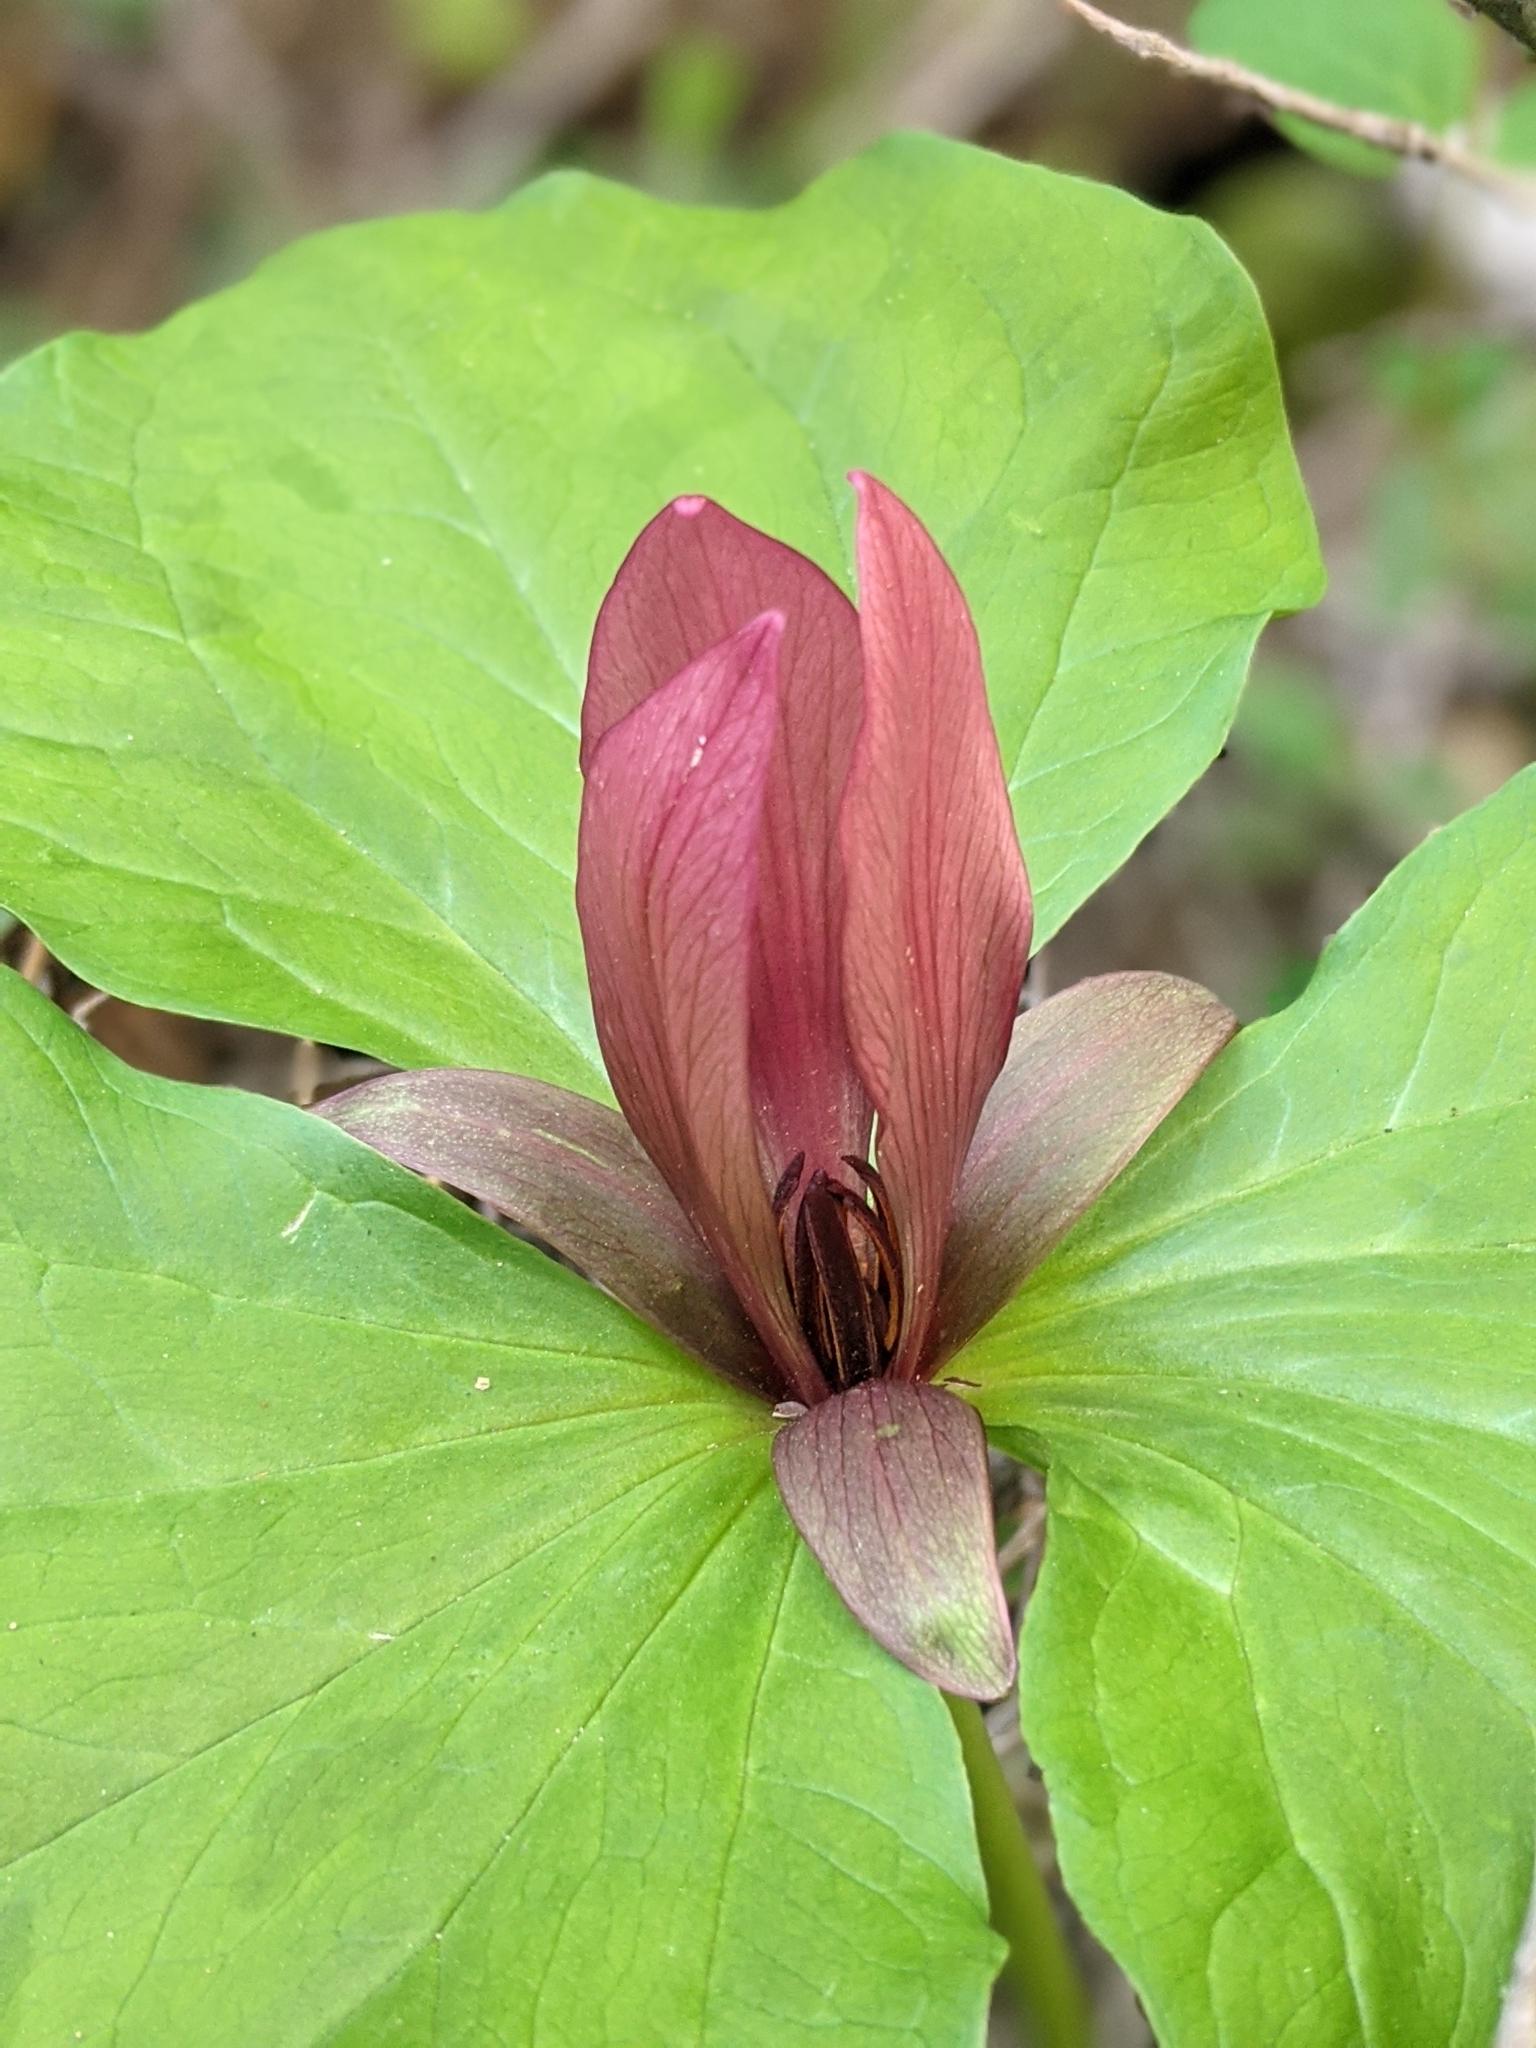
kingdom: Plantae
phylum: Tracheophyta
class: Liliopsida
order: Liliales
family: Melanthiaceae
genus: Trillium
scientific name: Trillium chloropetalum
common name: Giant trillium
